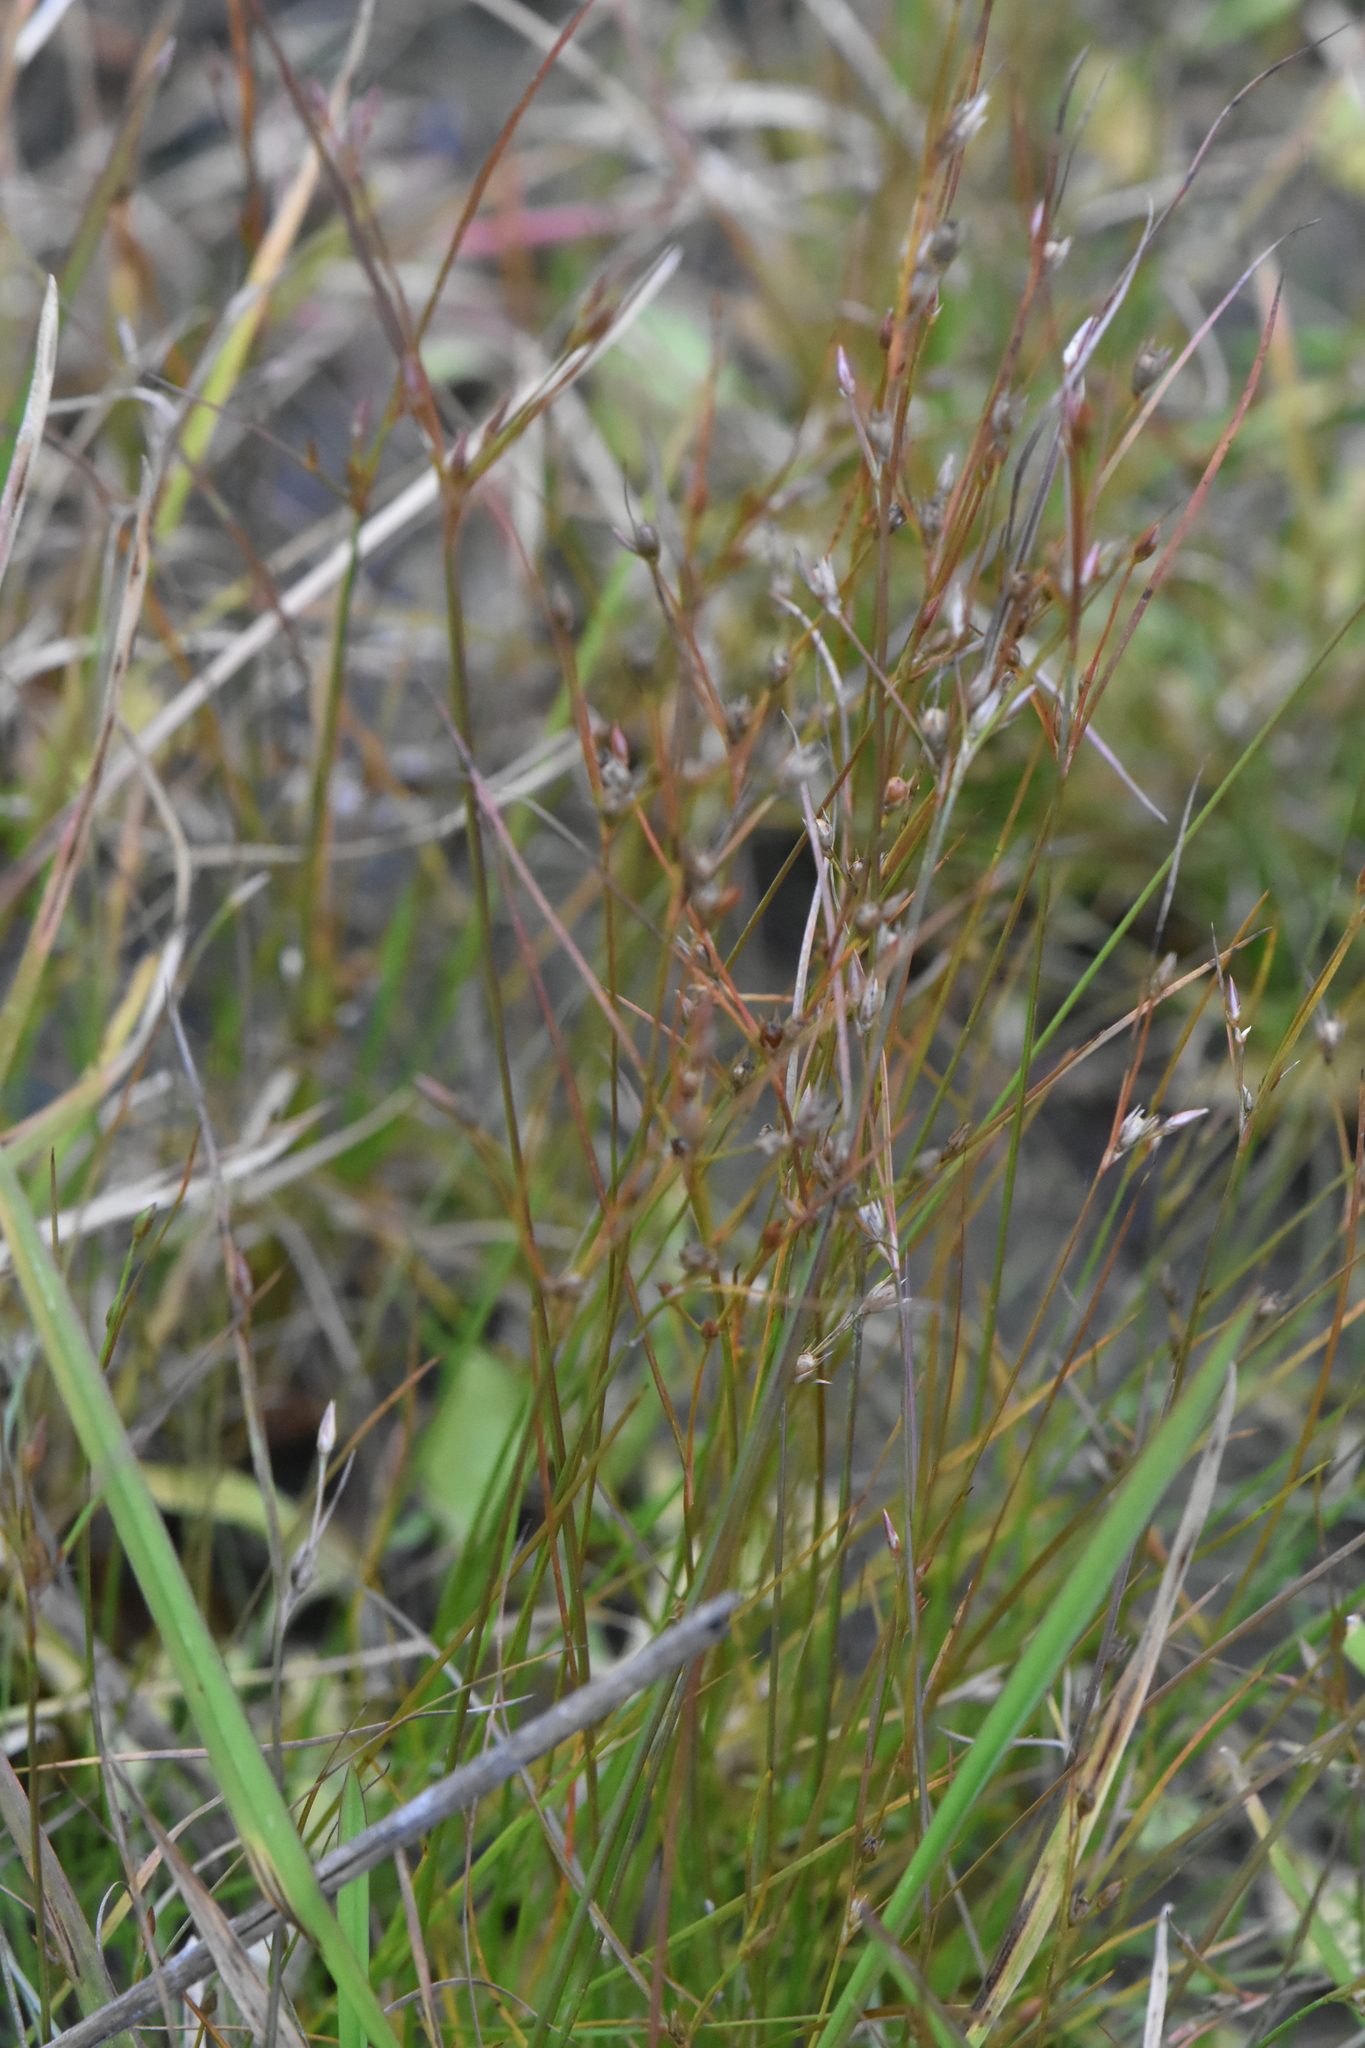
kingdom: Plantae
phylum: Tracheophyta
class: Liliopsida
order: Poales
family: Juncaceae
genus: Juncus
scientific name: Juncus bufonius
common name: Toad rush
